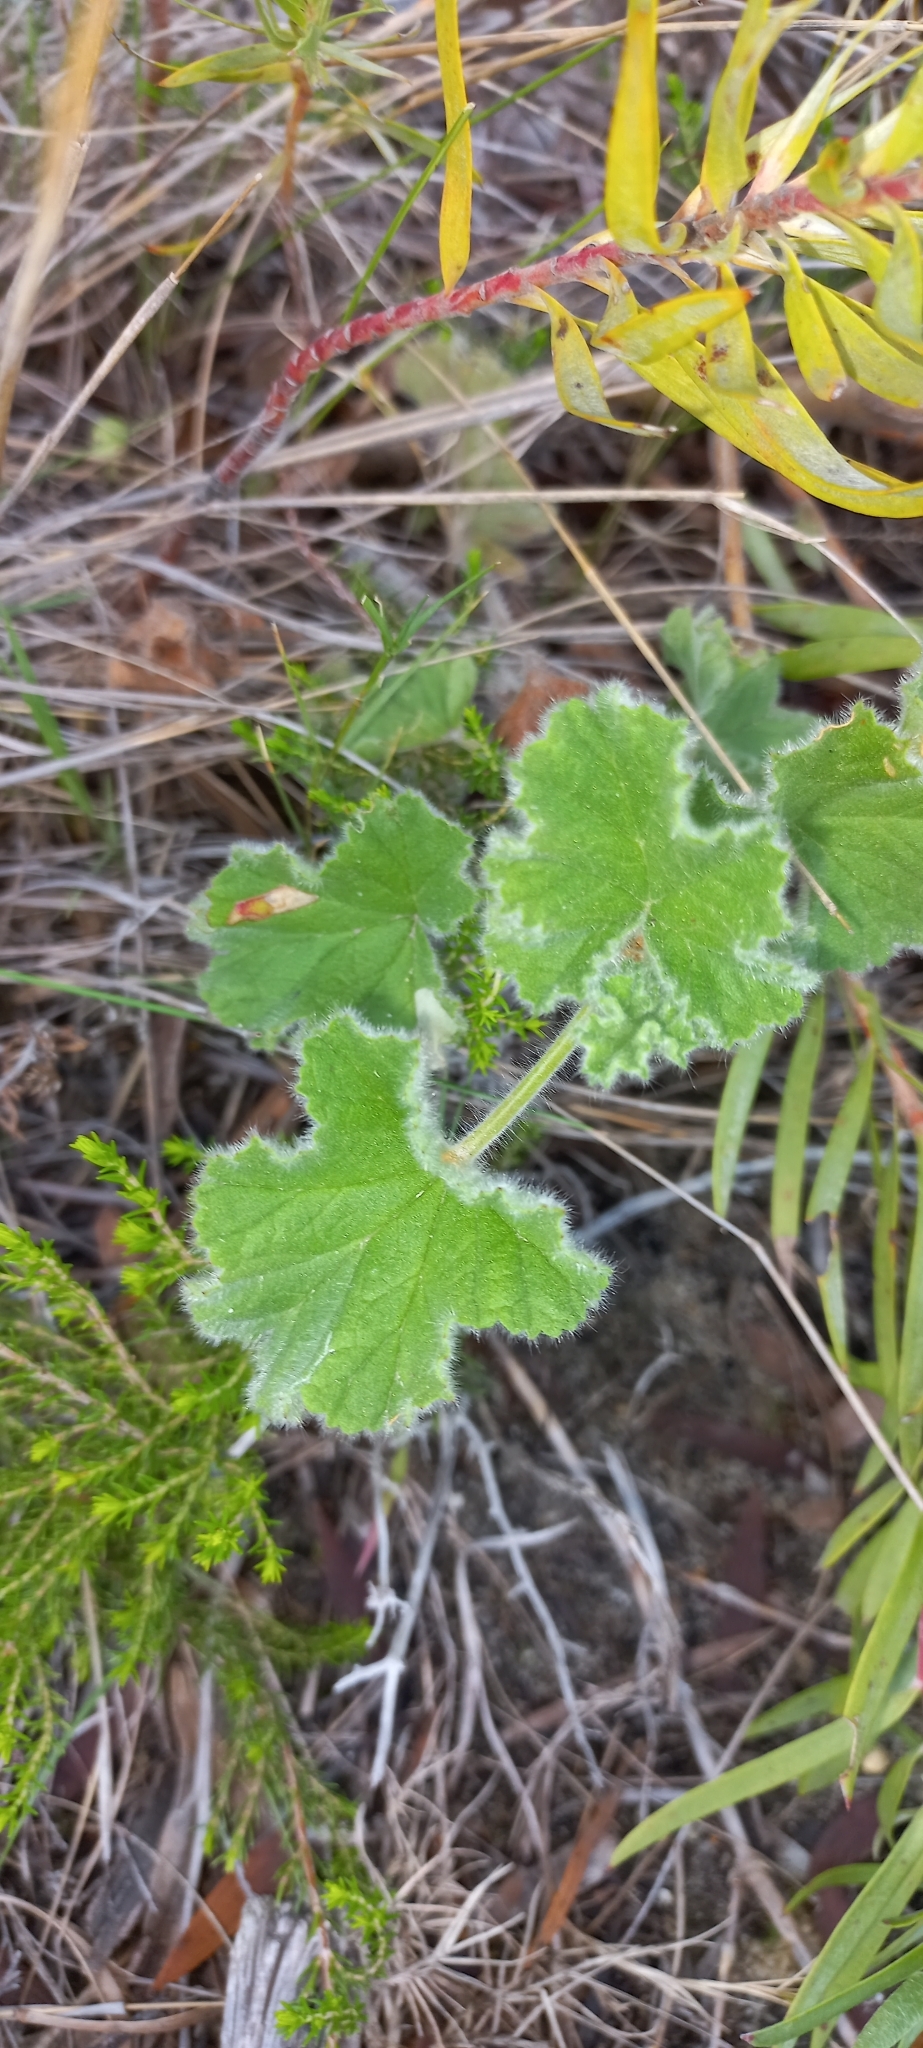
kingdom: Plantae
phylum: Tracheophyta
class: Magnoliopsida
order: Geraniales
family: Geraniaceae
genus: Pelargonium
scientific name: Pelargonium capitatum
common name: Rose scented geranium
